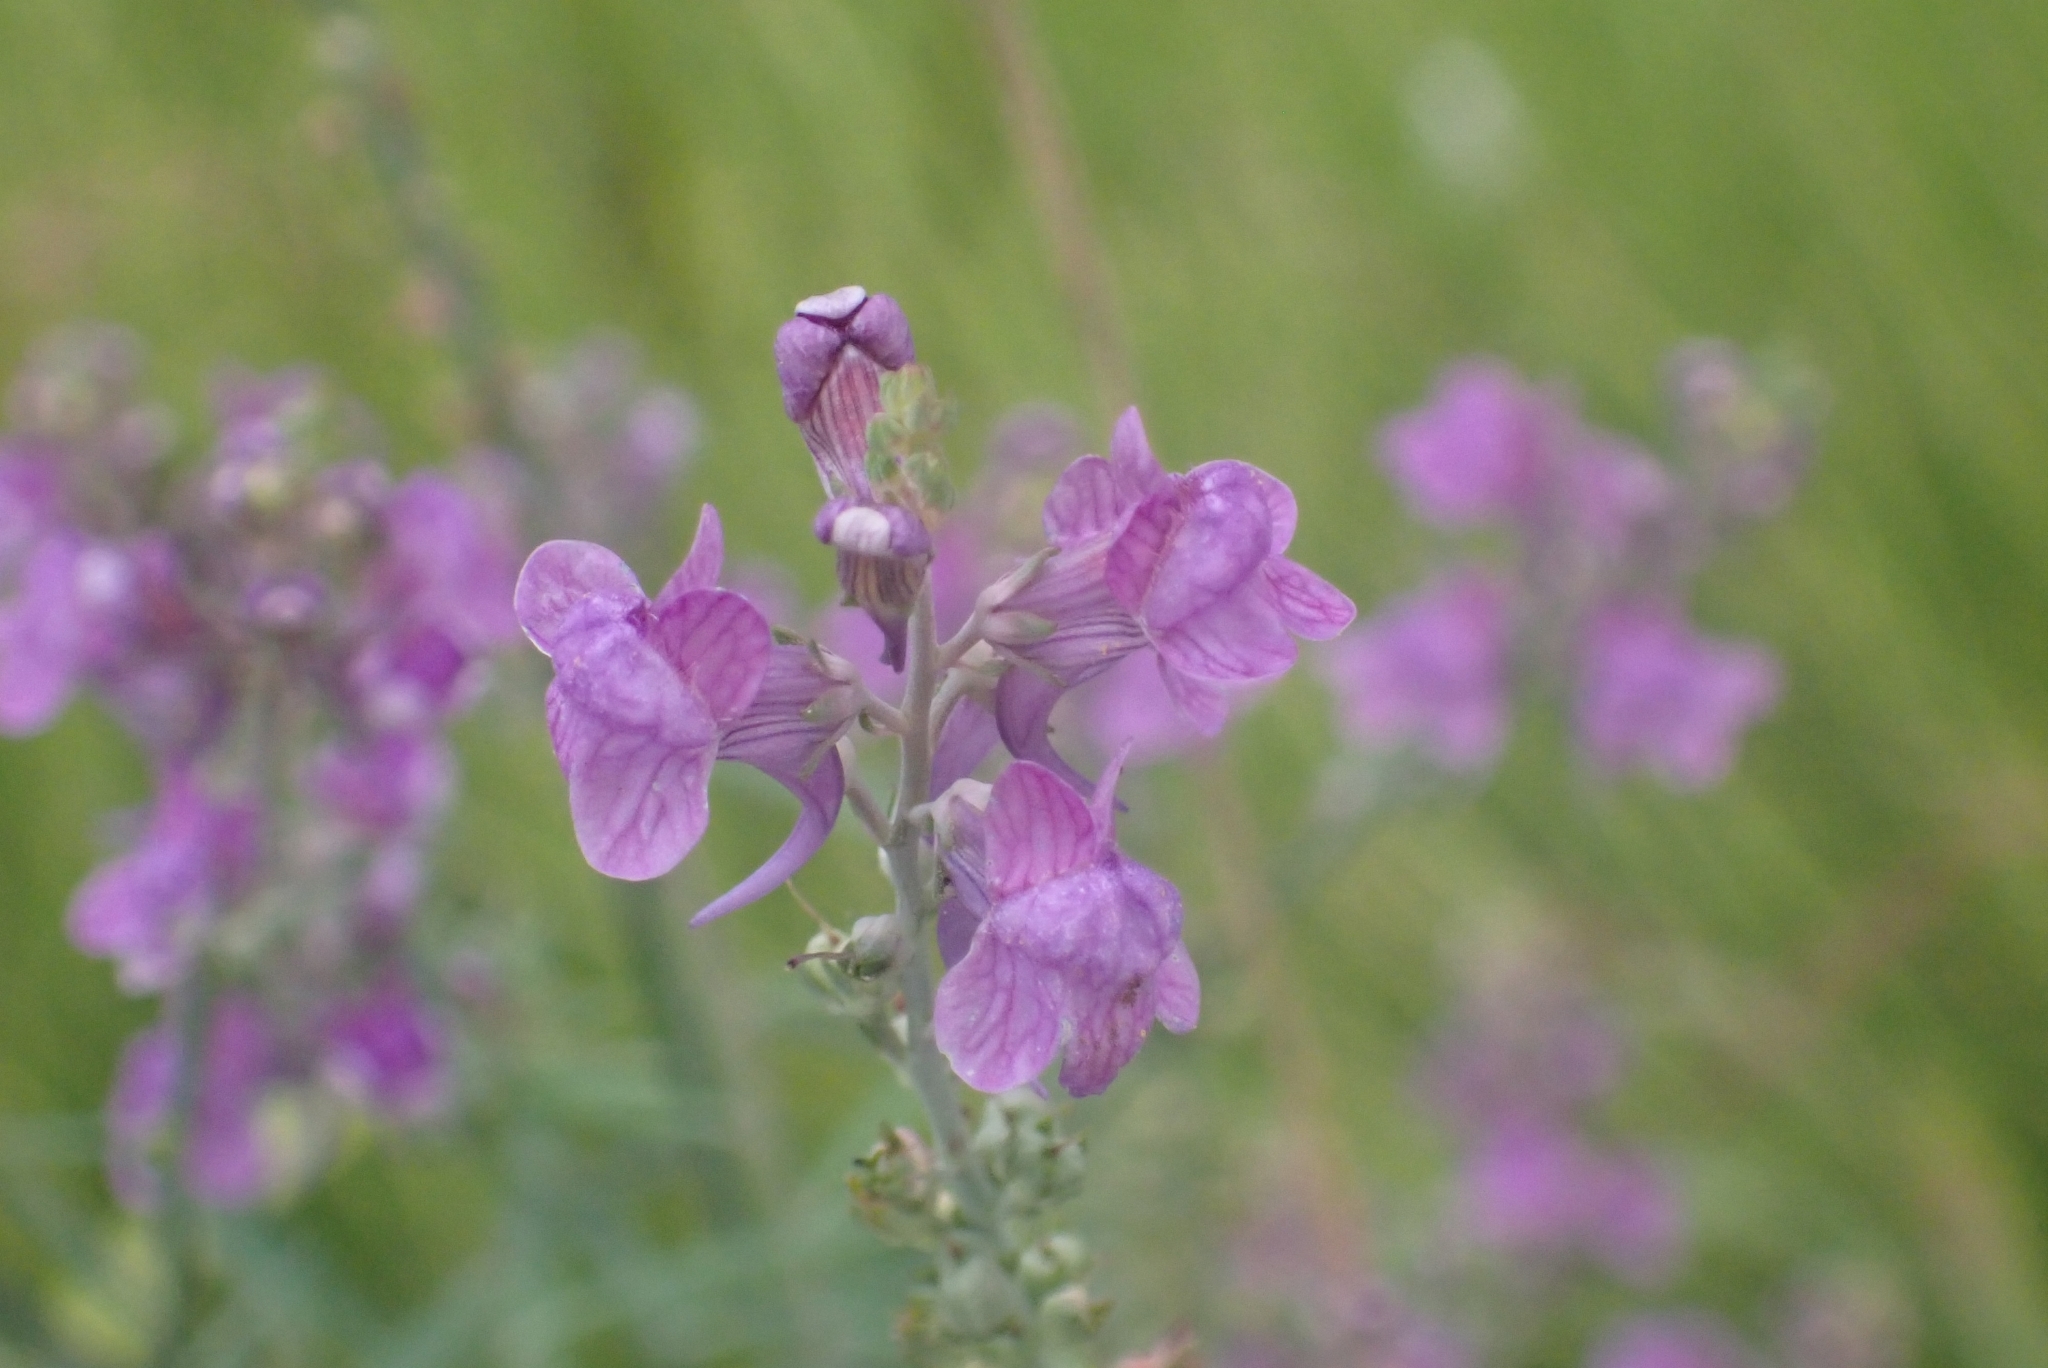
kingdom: Plantae
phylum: Tracheophyta
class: Magnoliopsida
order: Lamiales
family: Plantaginaceae
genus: Linaria
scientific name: Linaria purpurea
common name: Purple toadflax
